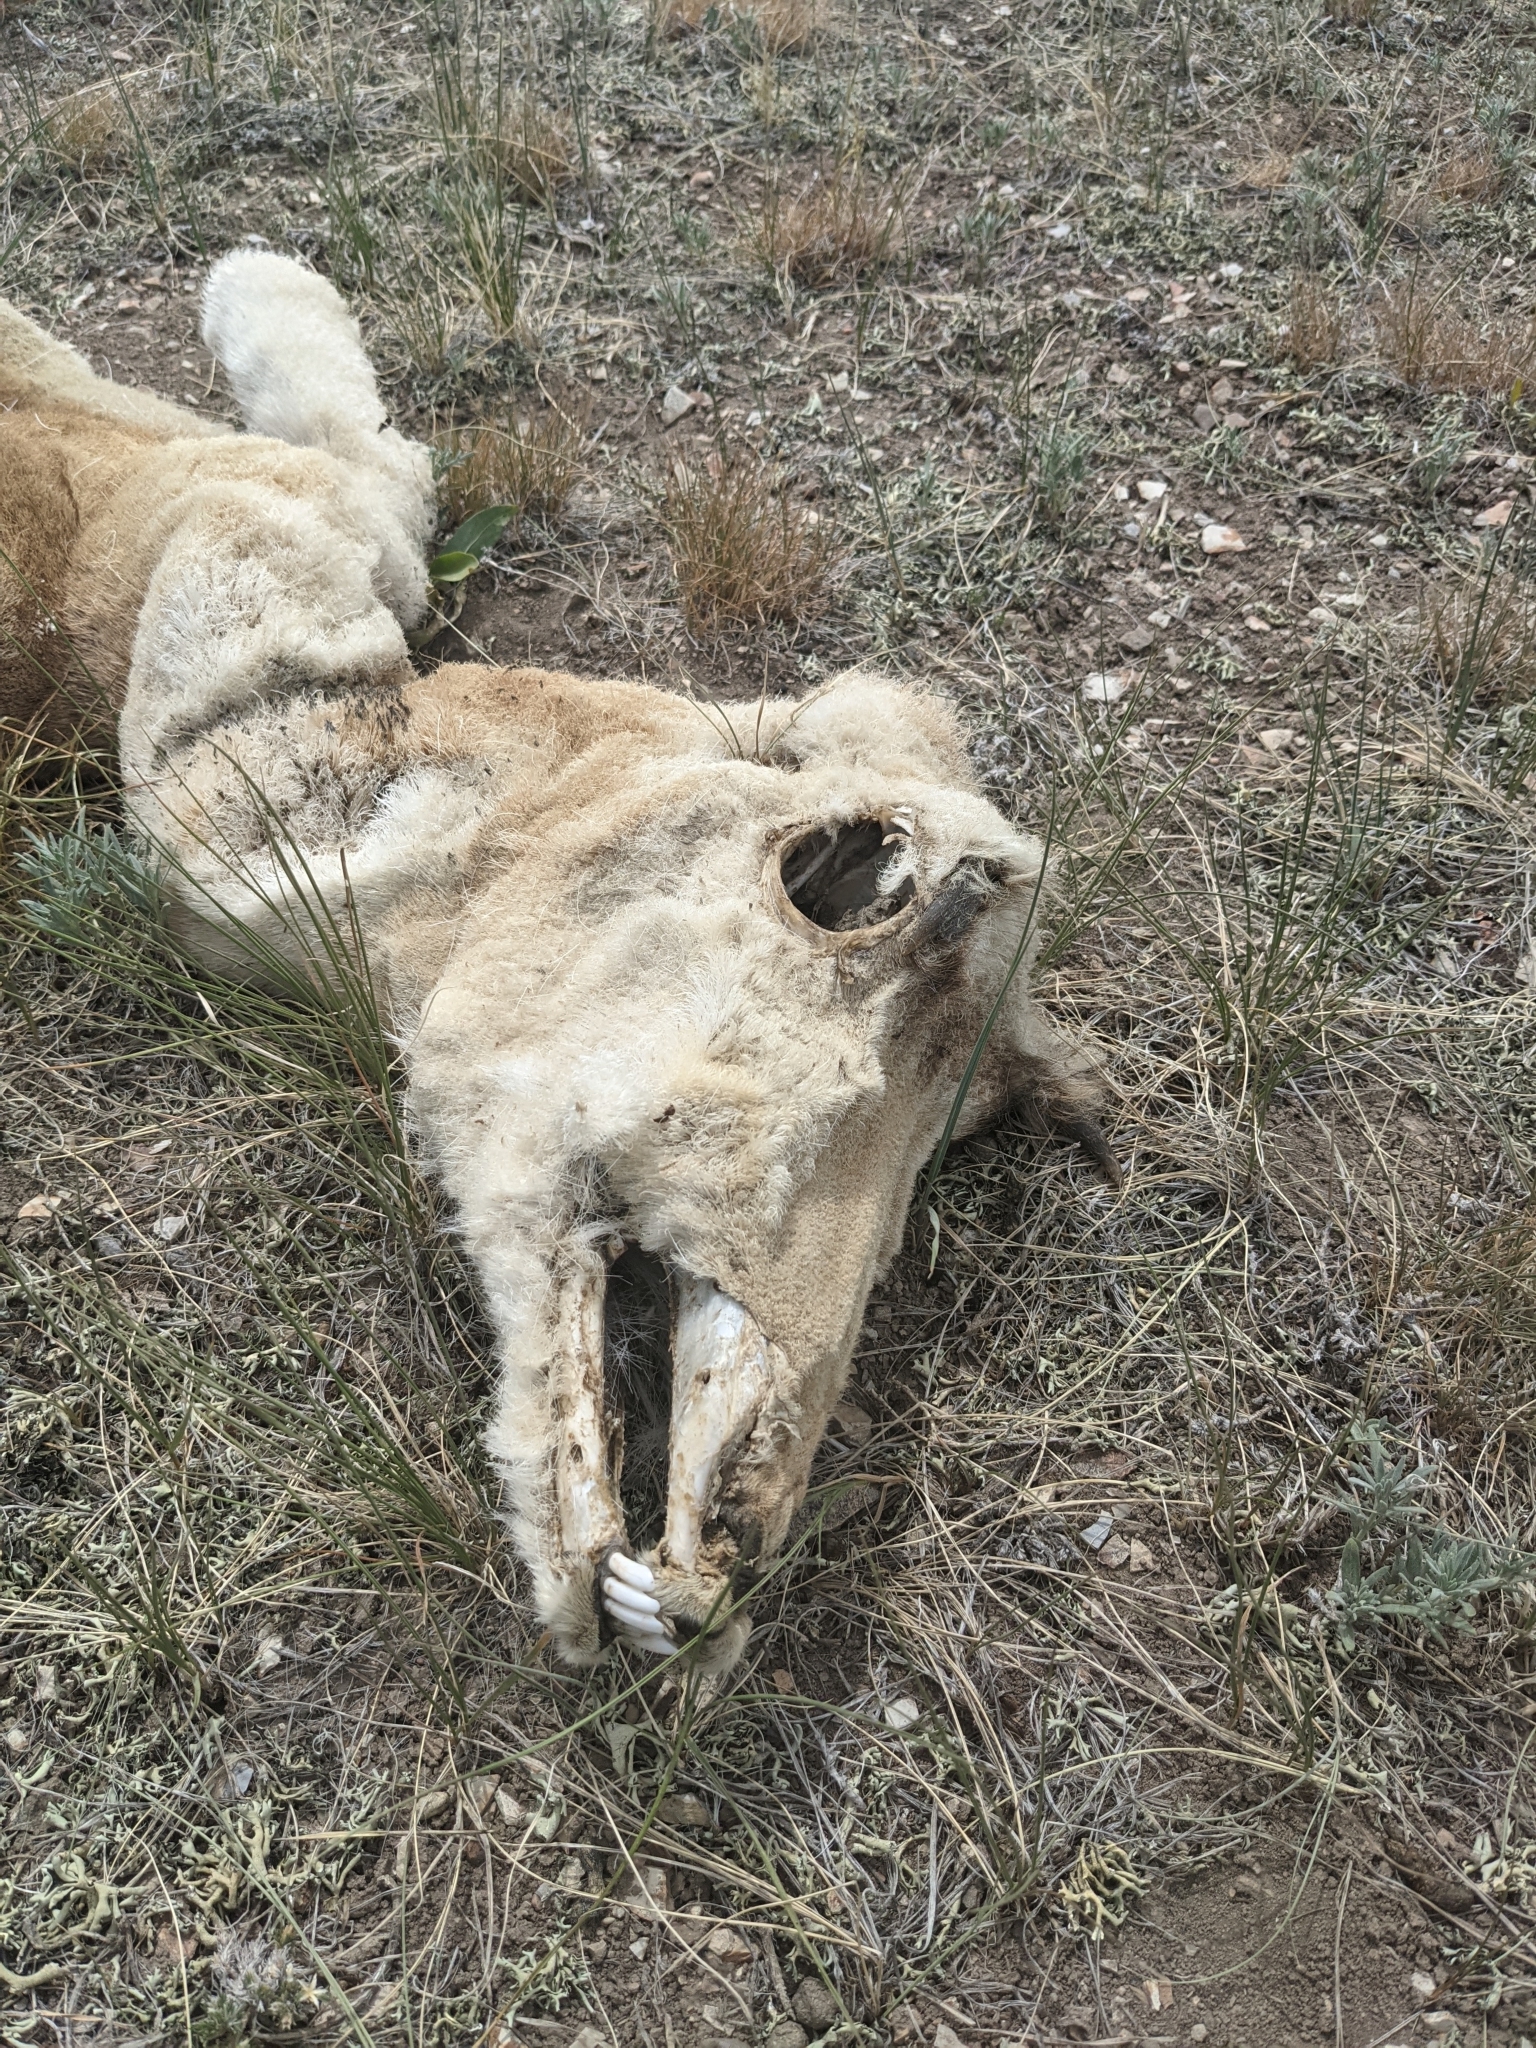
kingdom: Animalia
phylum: Chordata
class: Mammalia
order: Artiodactyla
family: Antilocapridae
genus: Antilocapra
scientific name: Antilocapra americana
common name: Pronghorn
